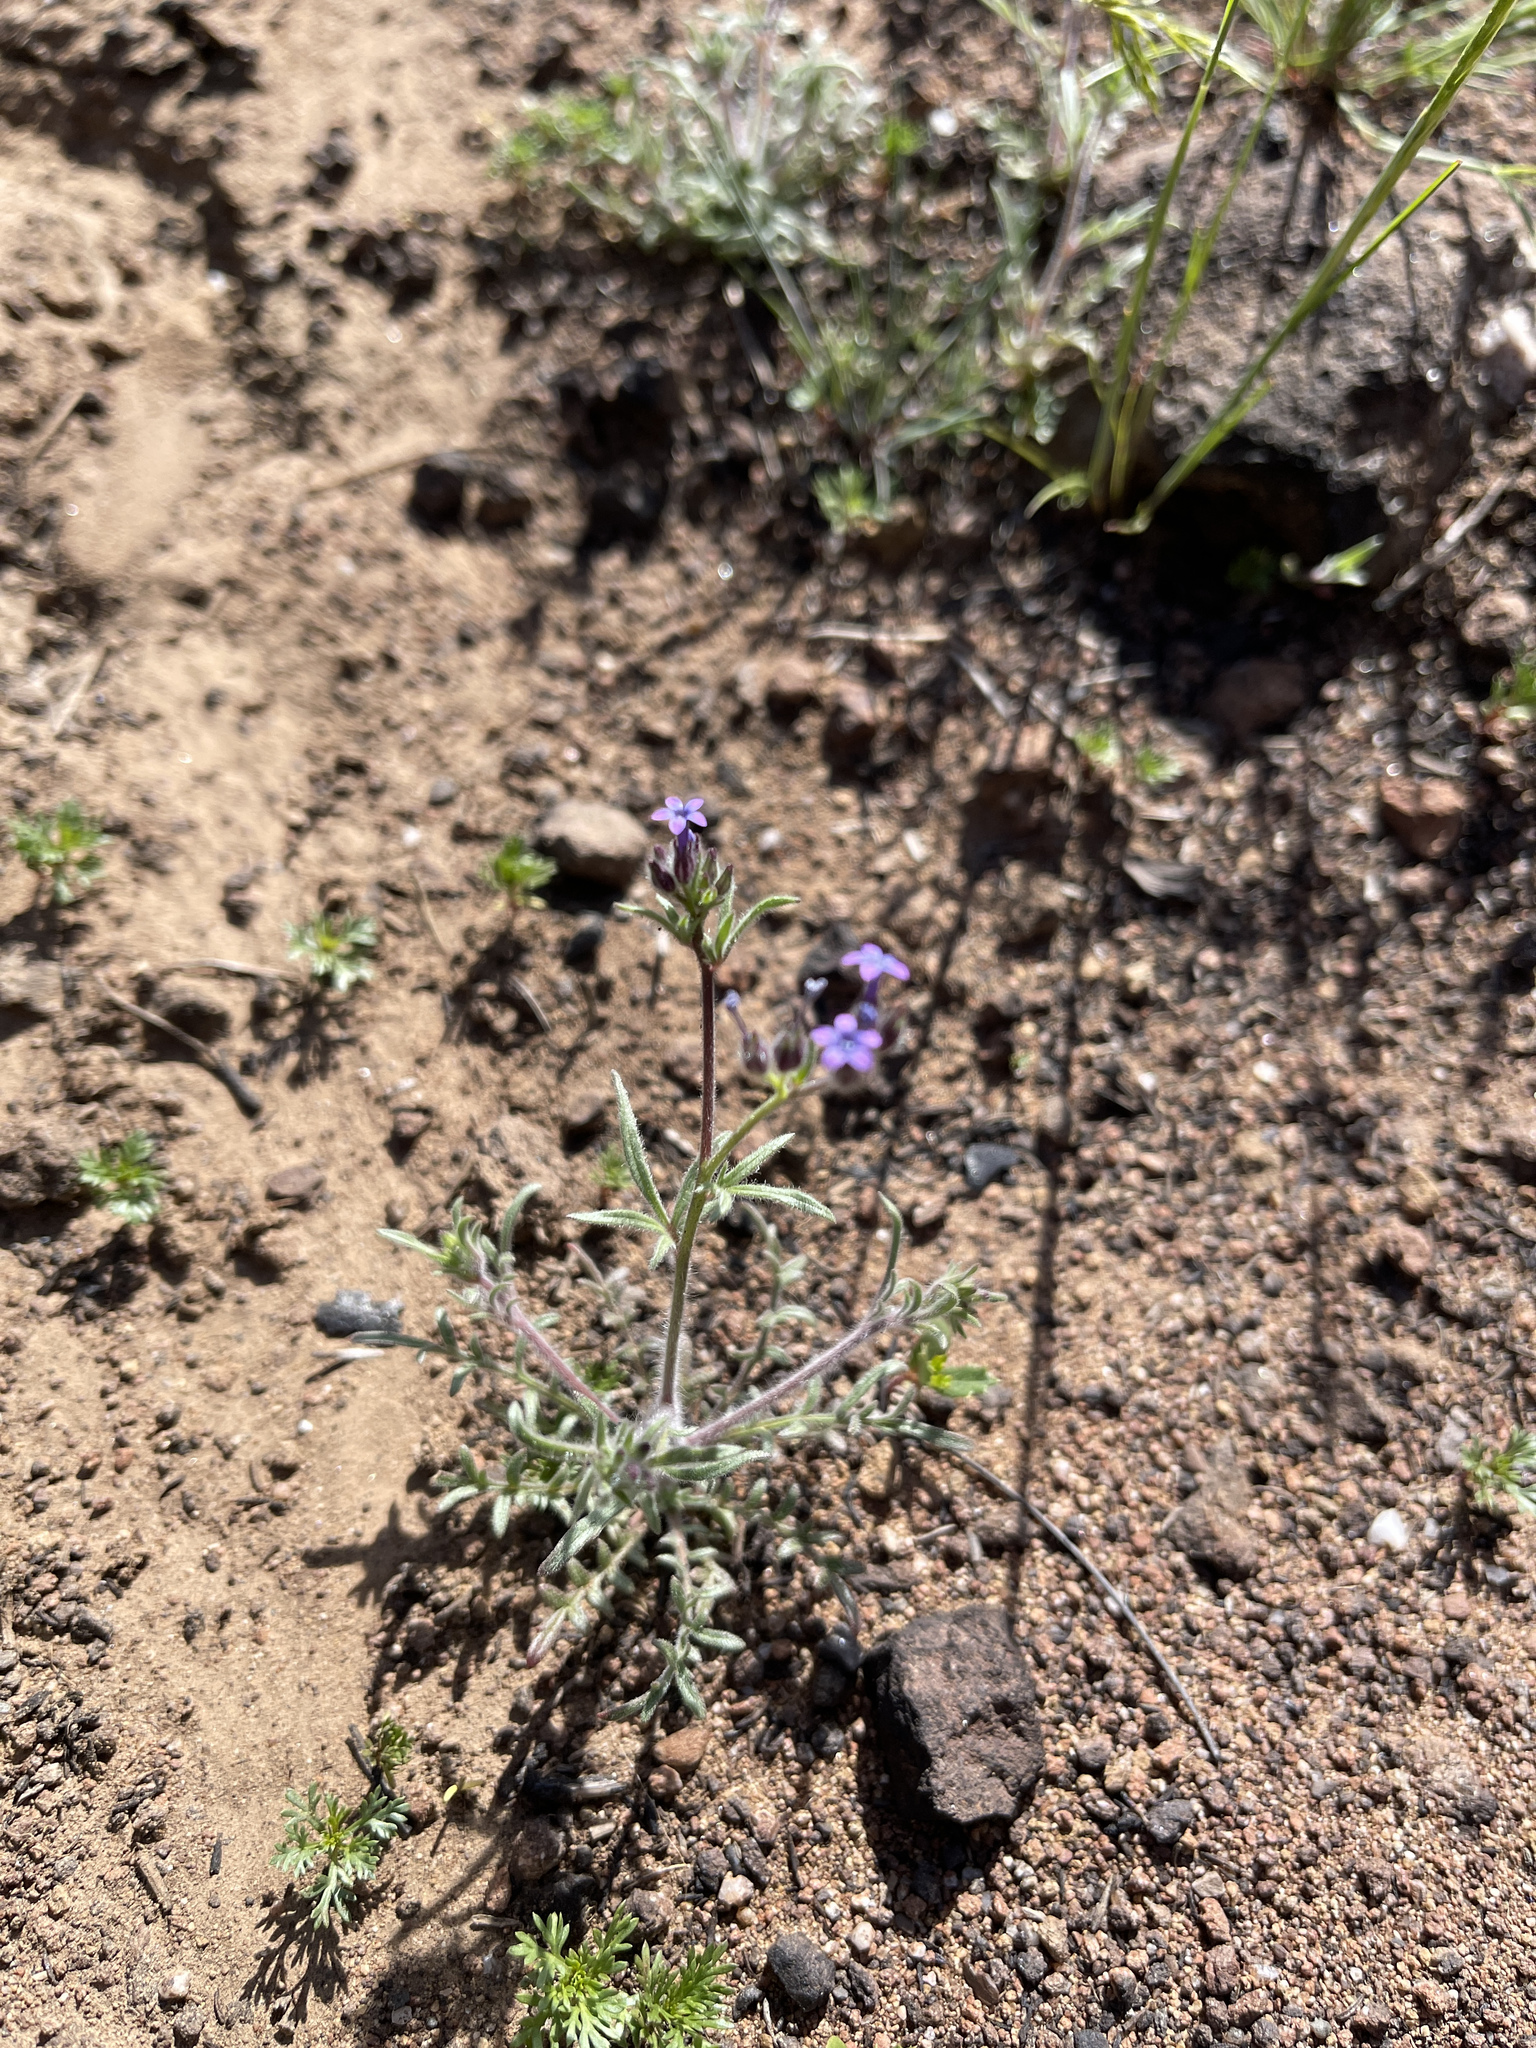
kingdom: Plantae
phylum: Tracheophyta
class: Magnoliopsida
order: Ericales
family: Polemoniaceae
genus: Allophyllum
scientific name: Allophyllum gilioides
